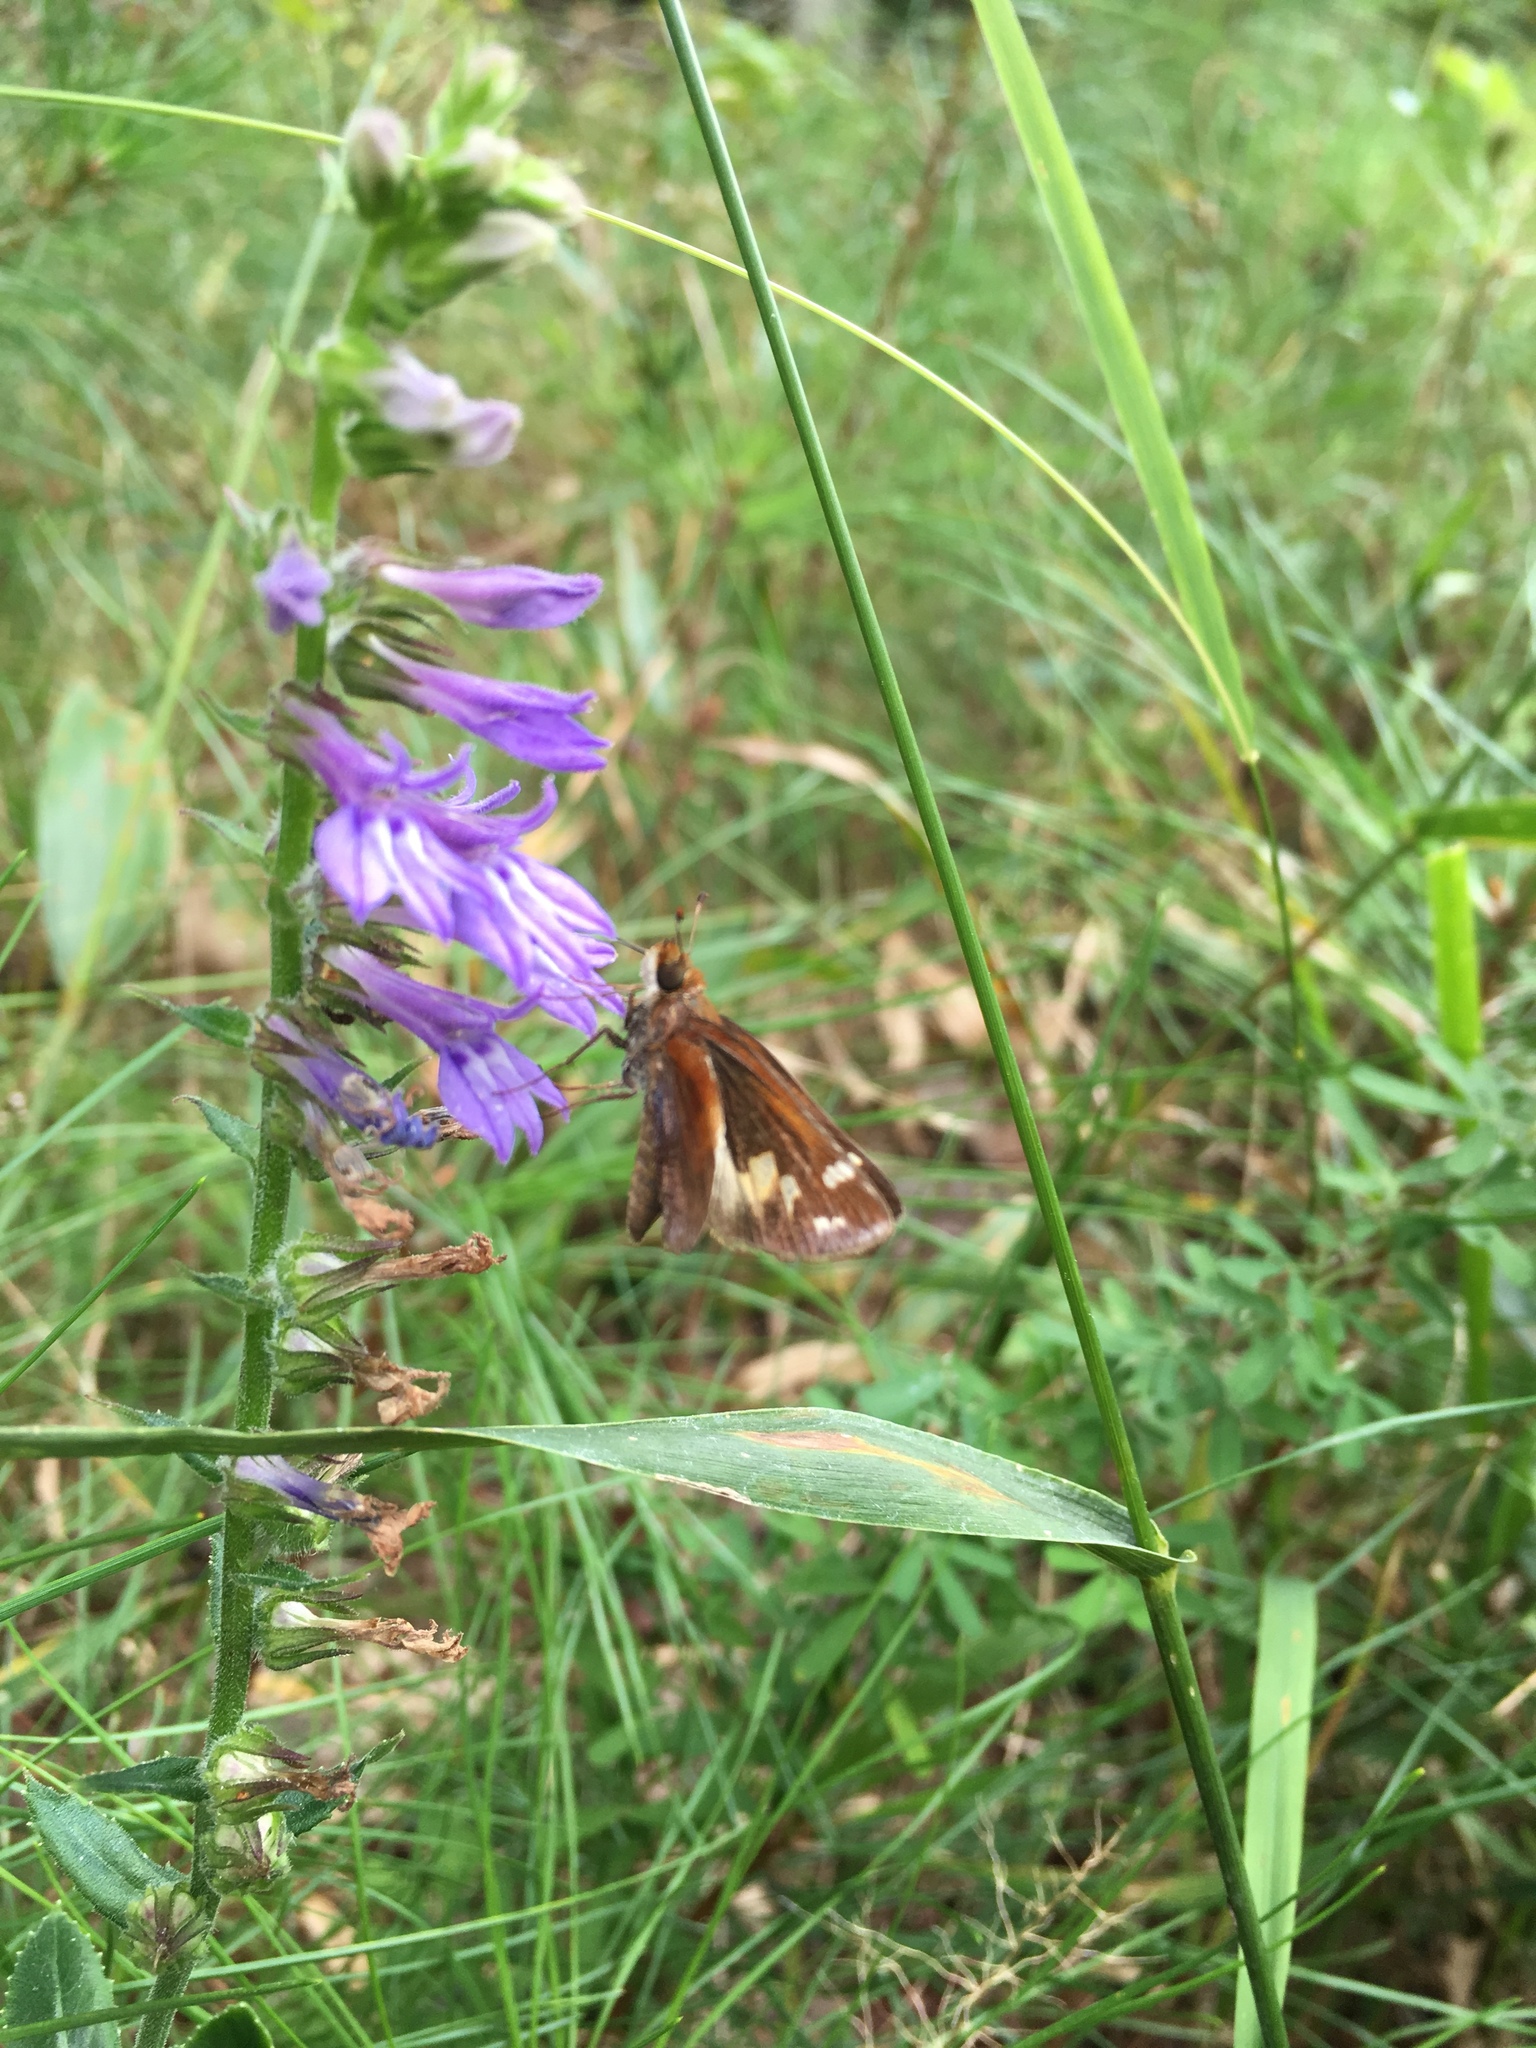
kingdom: Animalia
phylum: Arthropoda
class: Insecta
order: Lepidoptera
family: Hesperiidae
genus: Lon
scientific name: Lon zabulon
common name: Zabulon skipper
